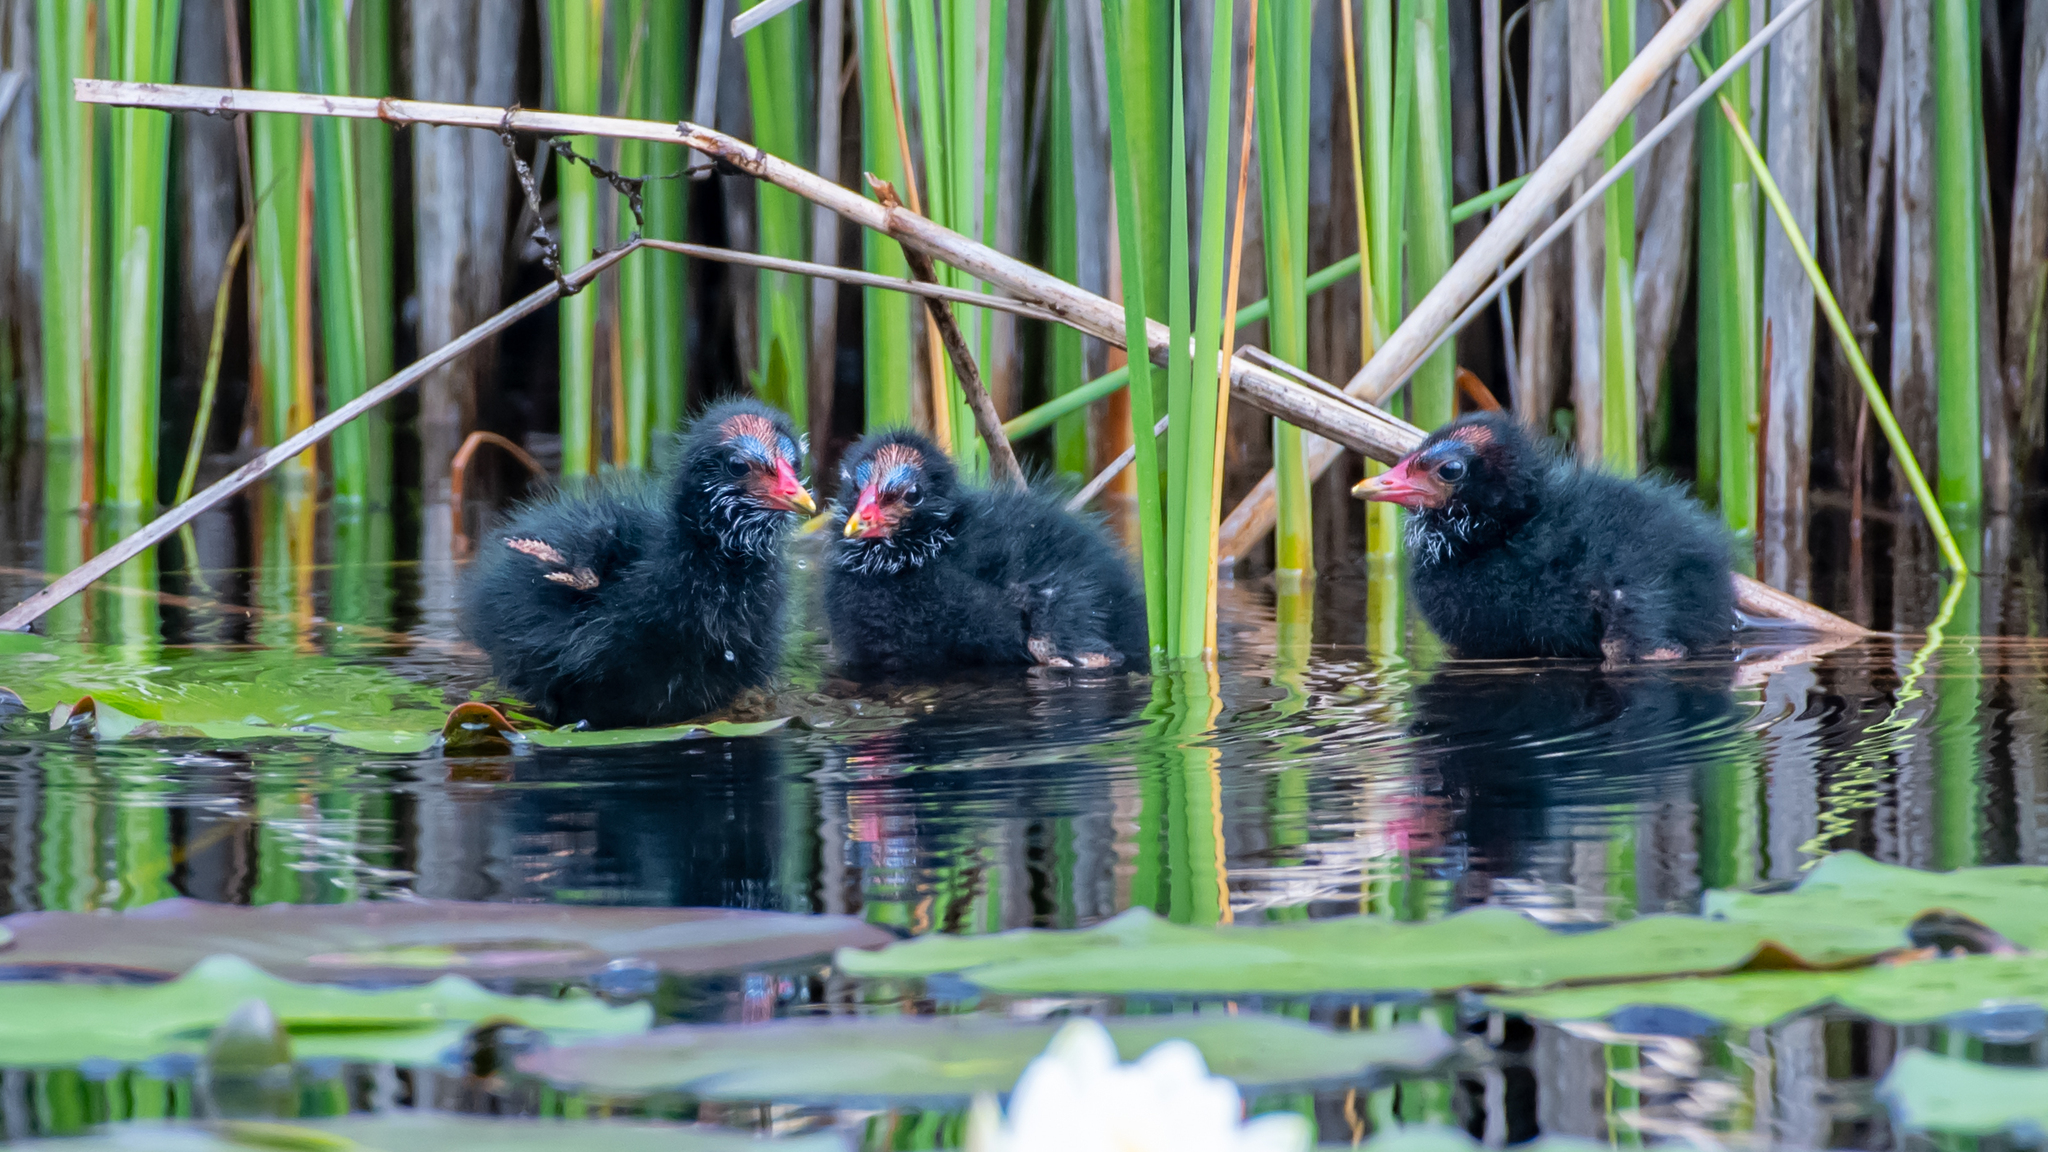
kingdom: Animalia
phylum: Chordata
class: Aves
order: Gruiformes
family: Rallidae
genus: Gallinula
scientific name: Gallinula chloropus
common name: Common moorhen
